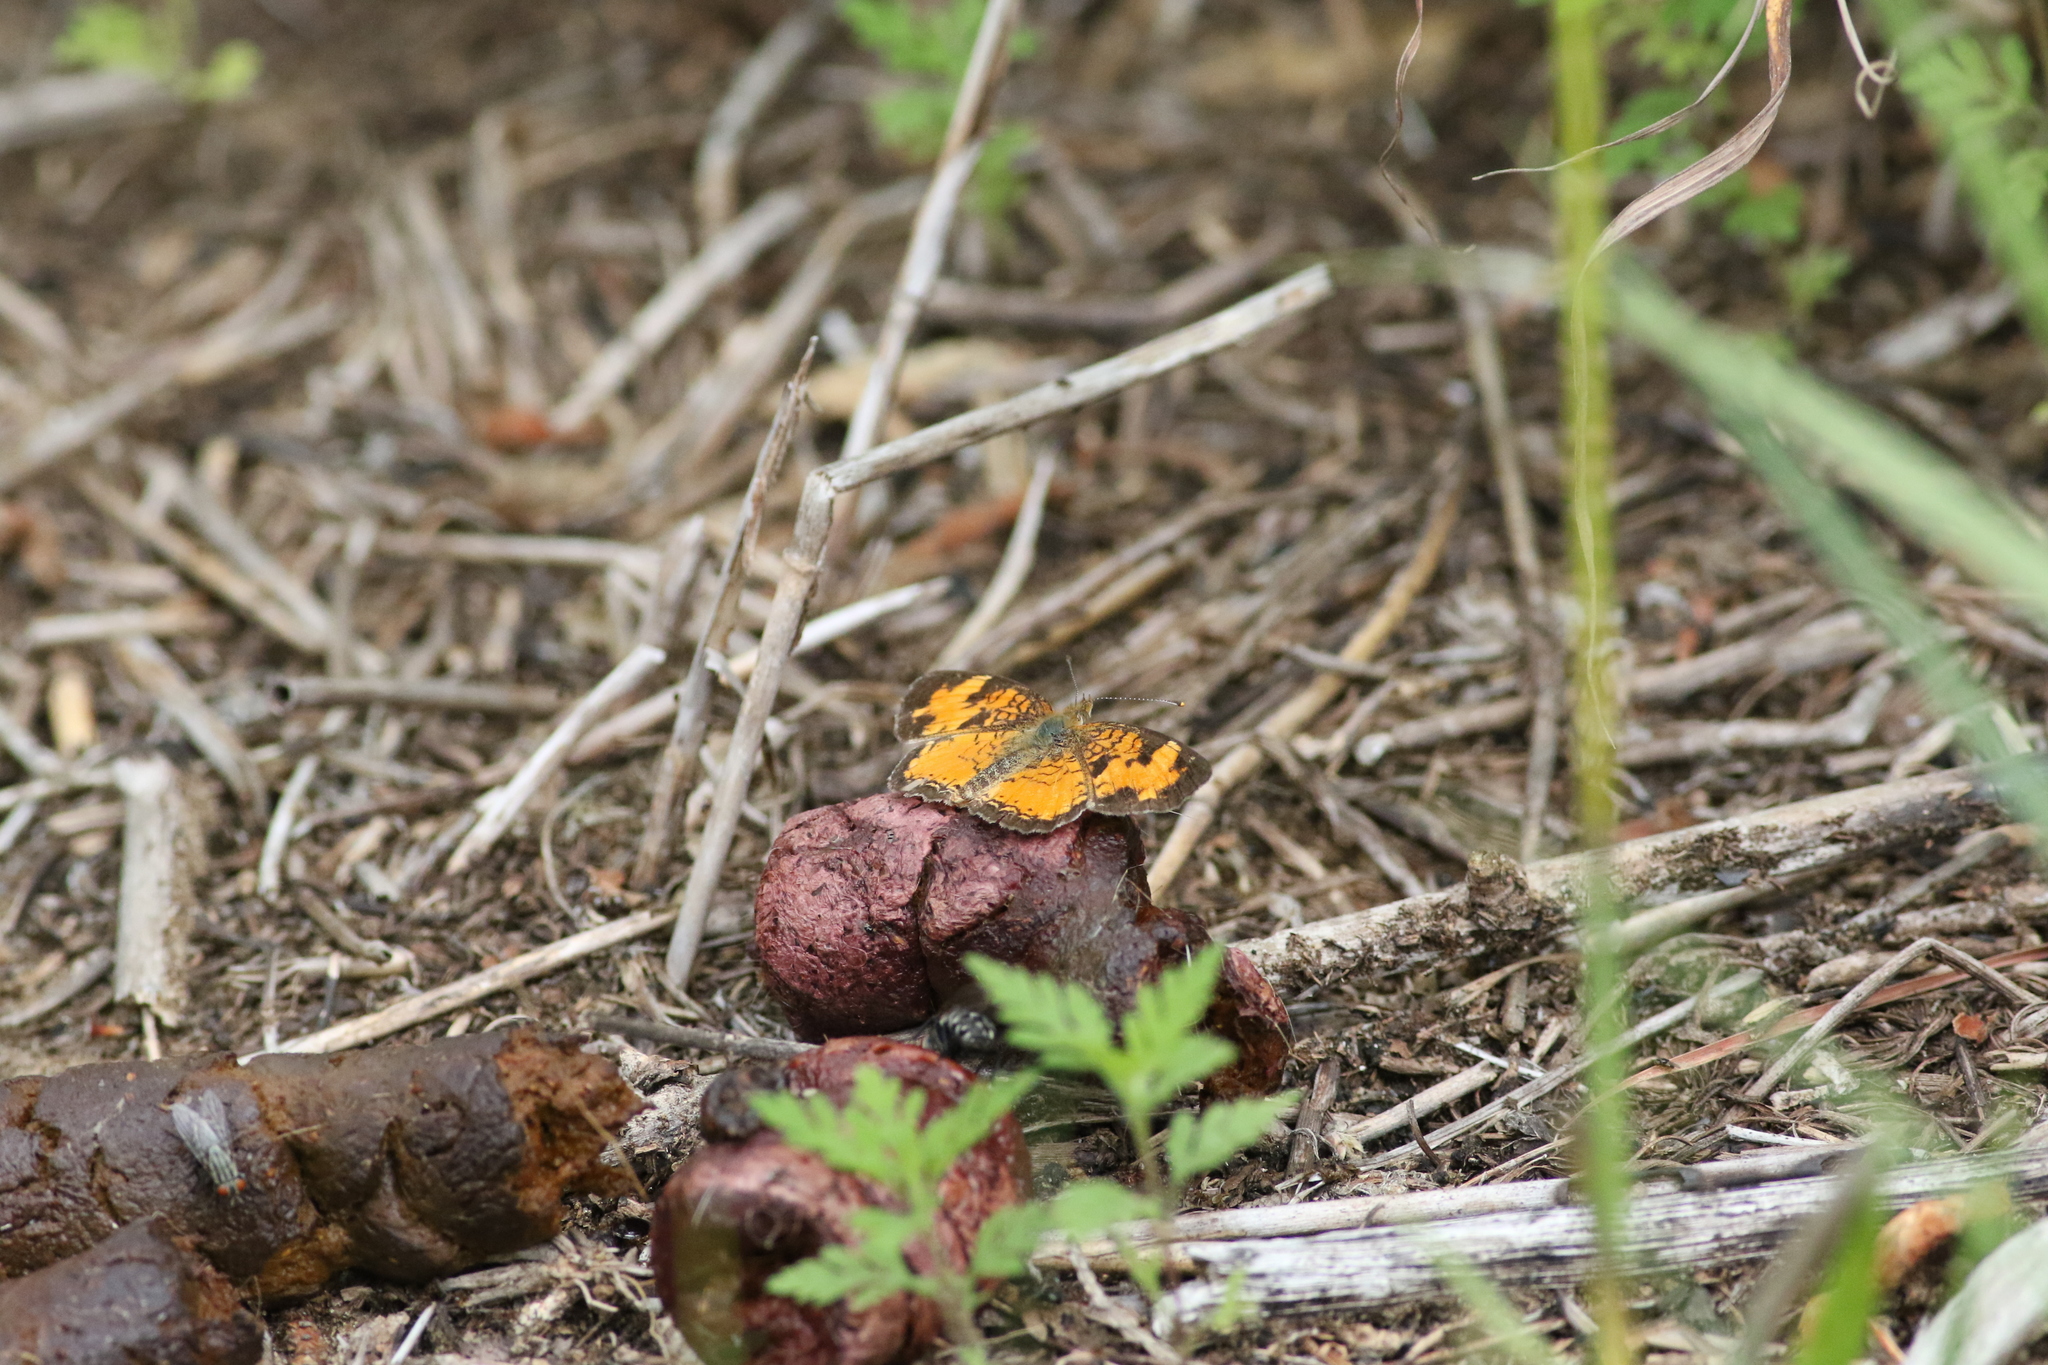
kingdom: Animalia
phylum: Arthropoda
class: Insecta
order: Lepidoptera
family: Nymphalidae
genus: Phyciodes
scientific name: Phyciodes tharos
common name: Pearl crescent
